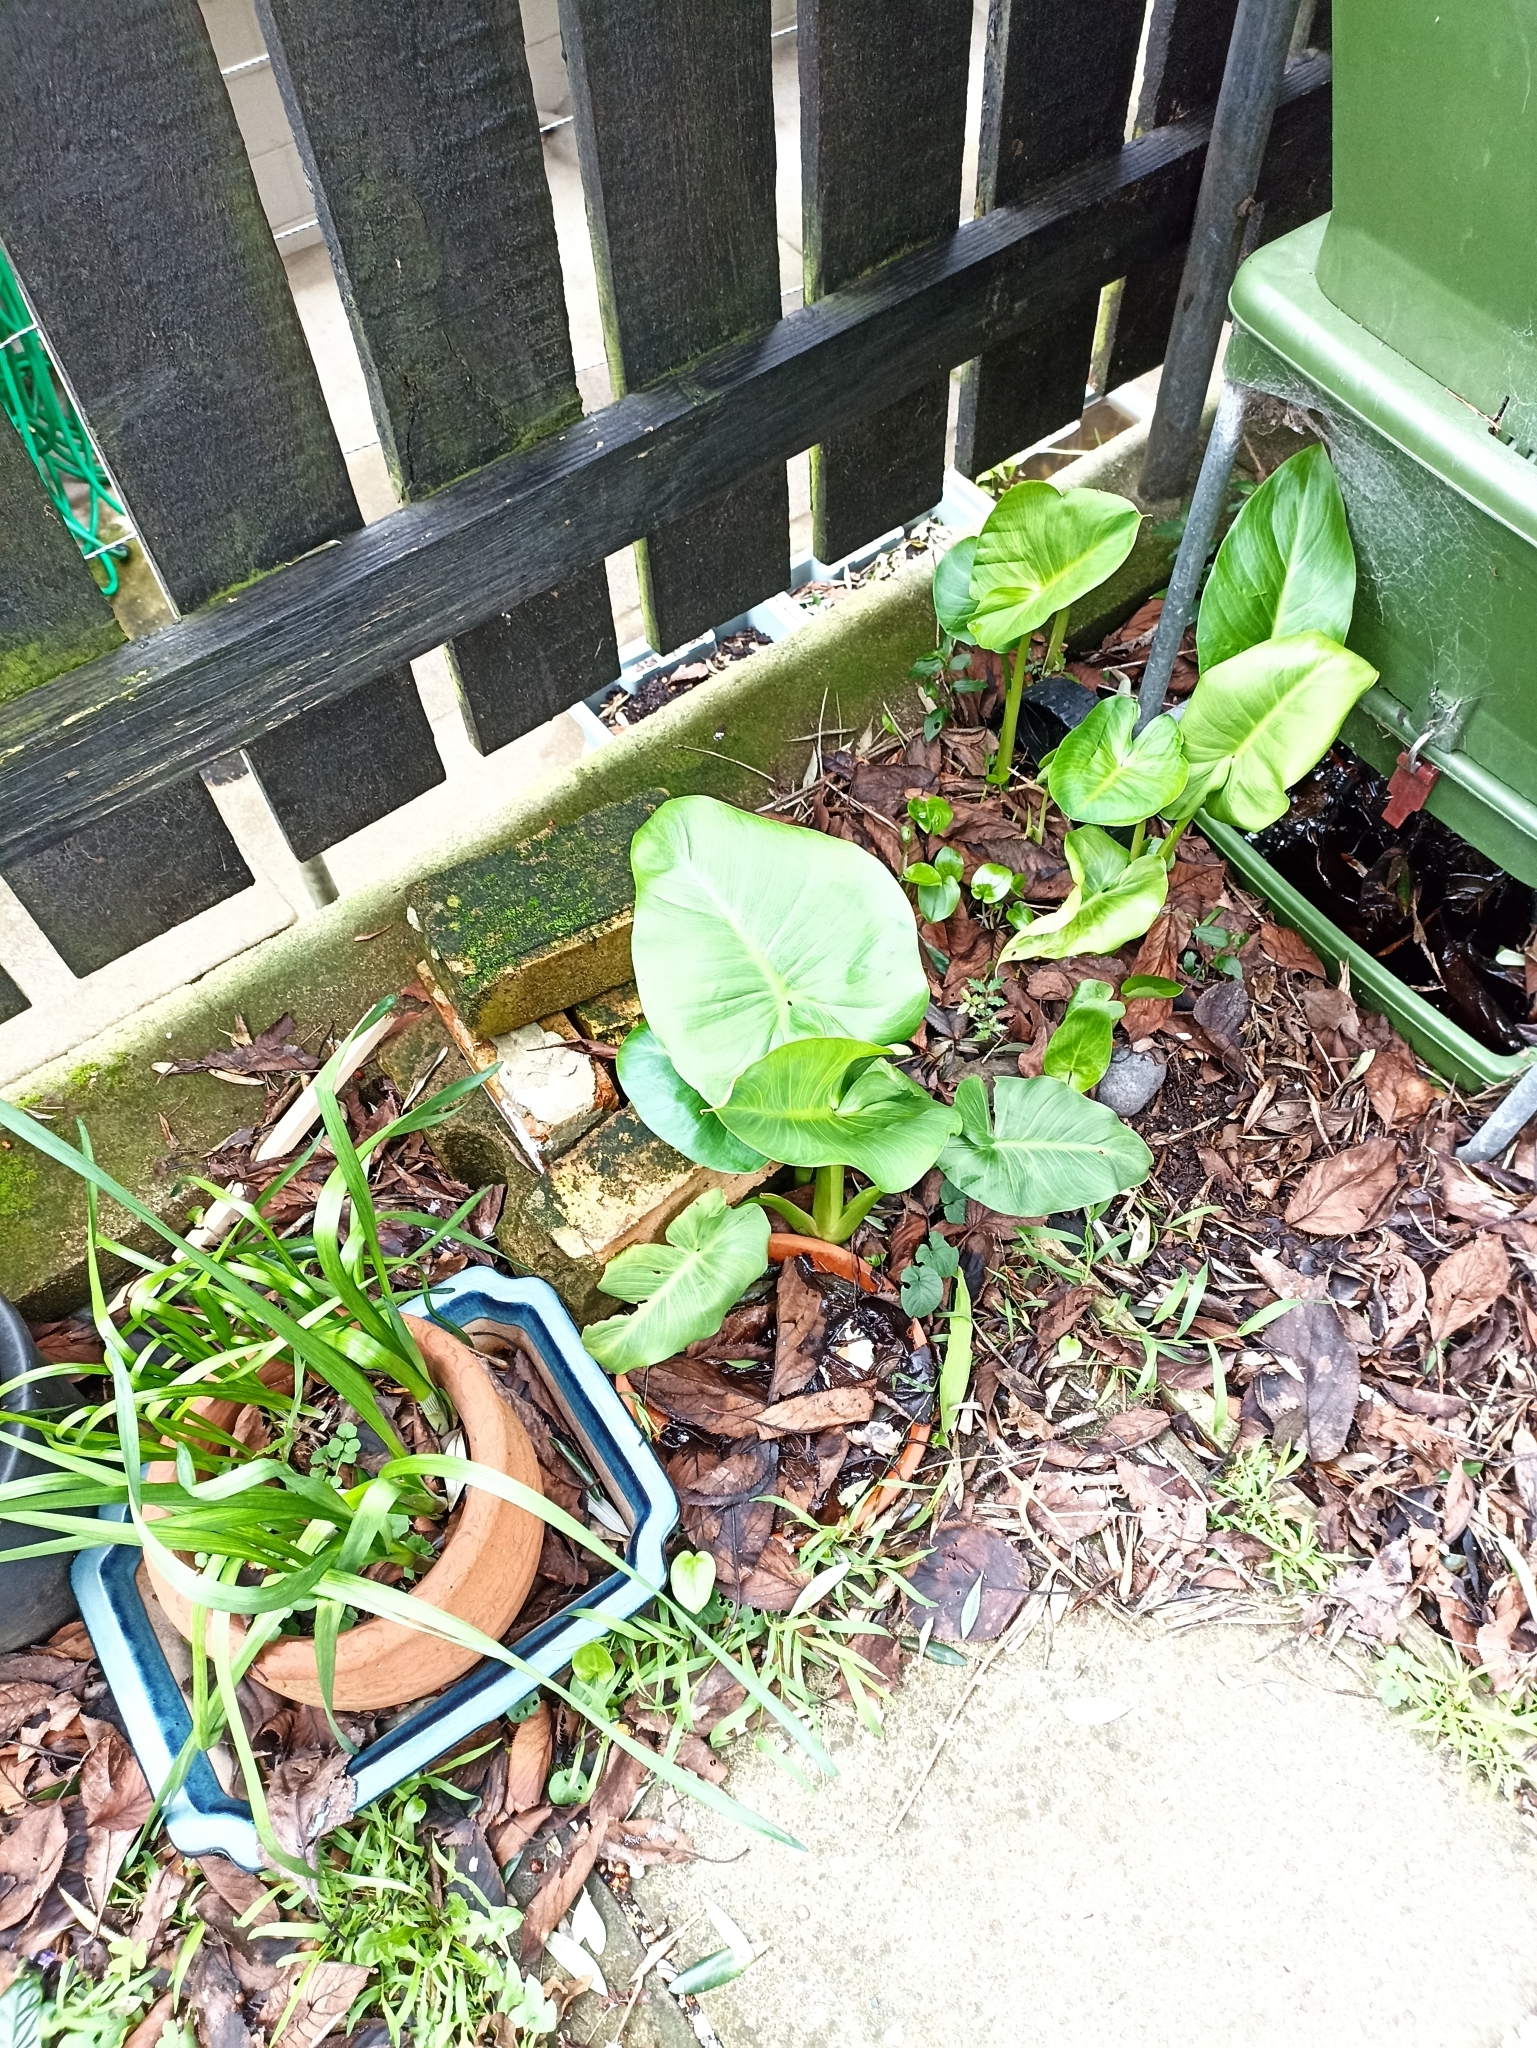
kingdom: Plantae
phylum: Tracheophyta
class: Liliopsida
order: Alismatales
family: Araceae
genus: Zantedeschia
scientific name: Zantedeschia aethiopica
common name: Altar-lily
